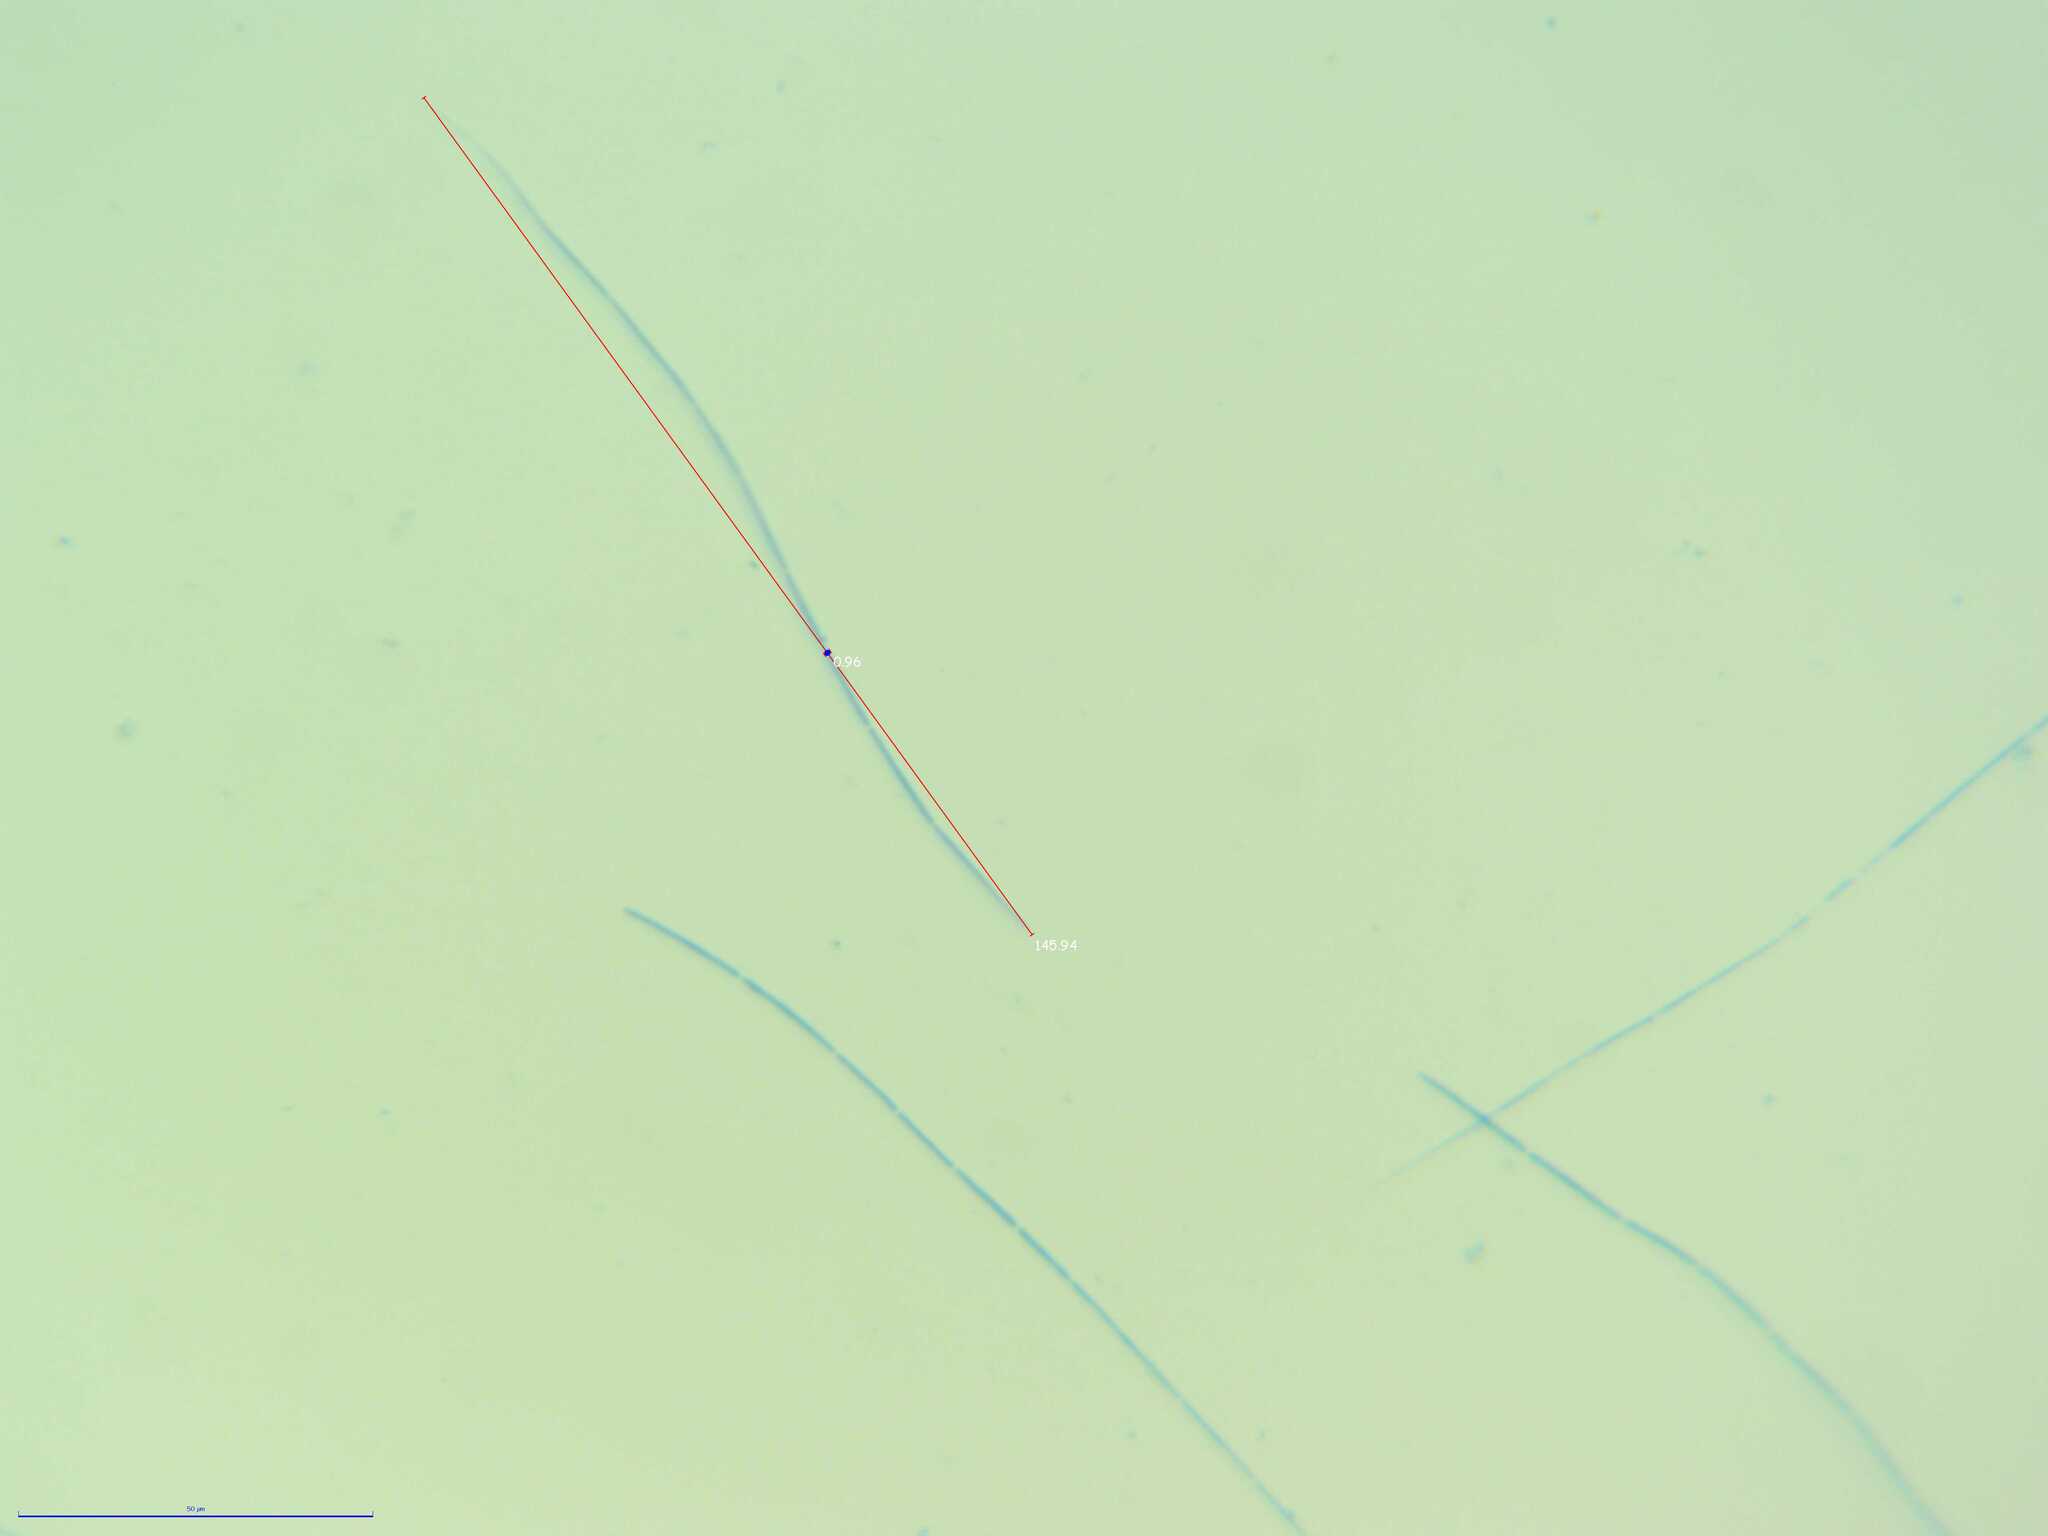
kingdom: Fungi
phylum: Ascomycota
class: Leotiomycetes
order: Helotiales
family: Vibrisseaceae
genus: Vibrissea
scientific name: Vibrissea foliorum
